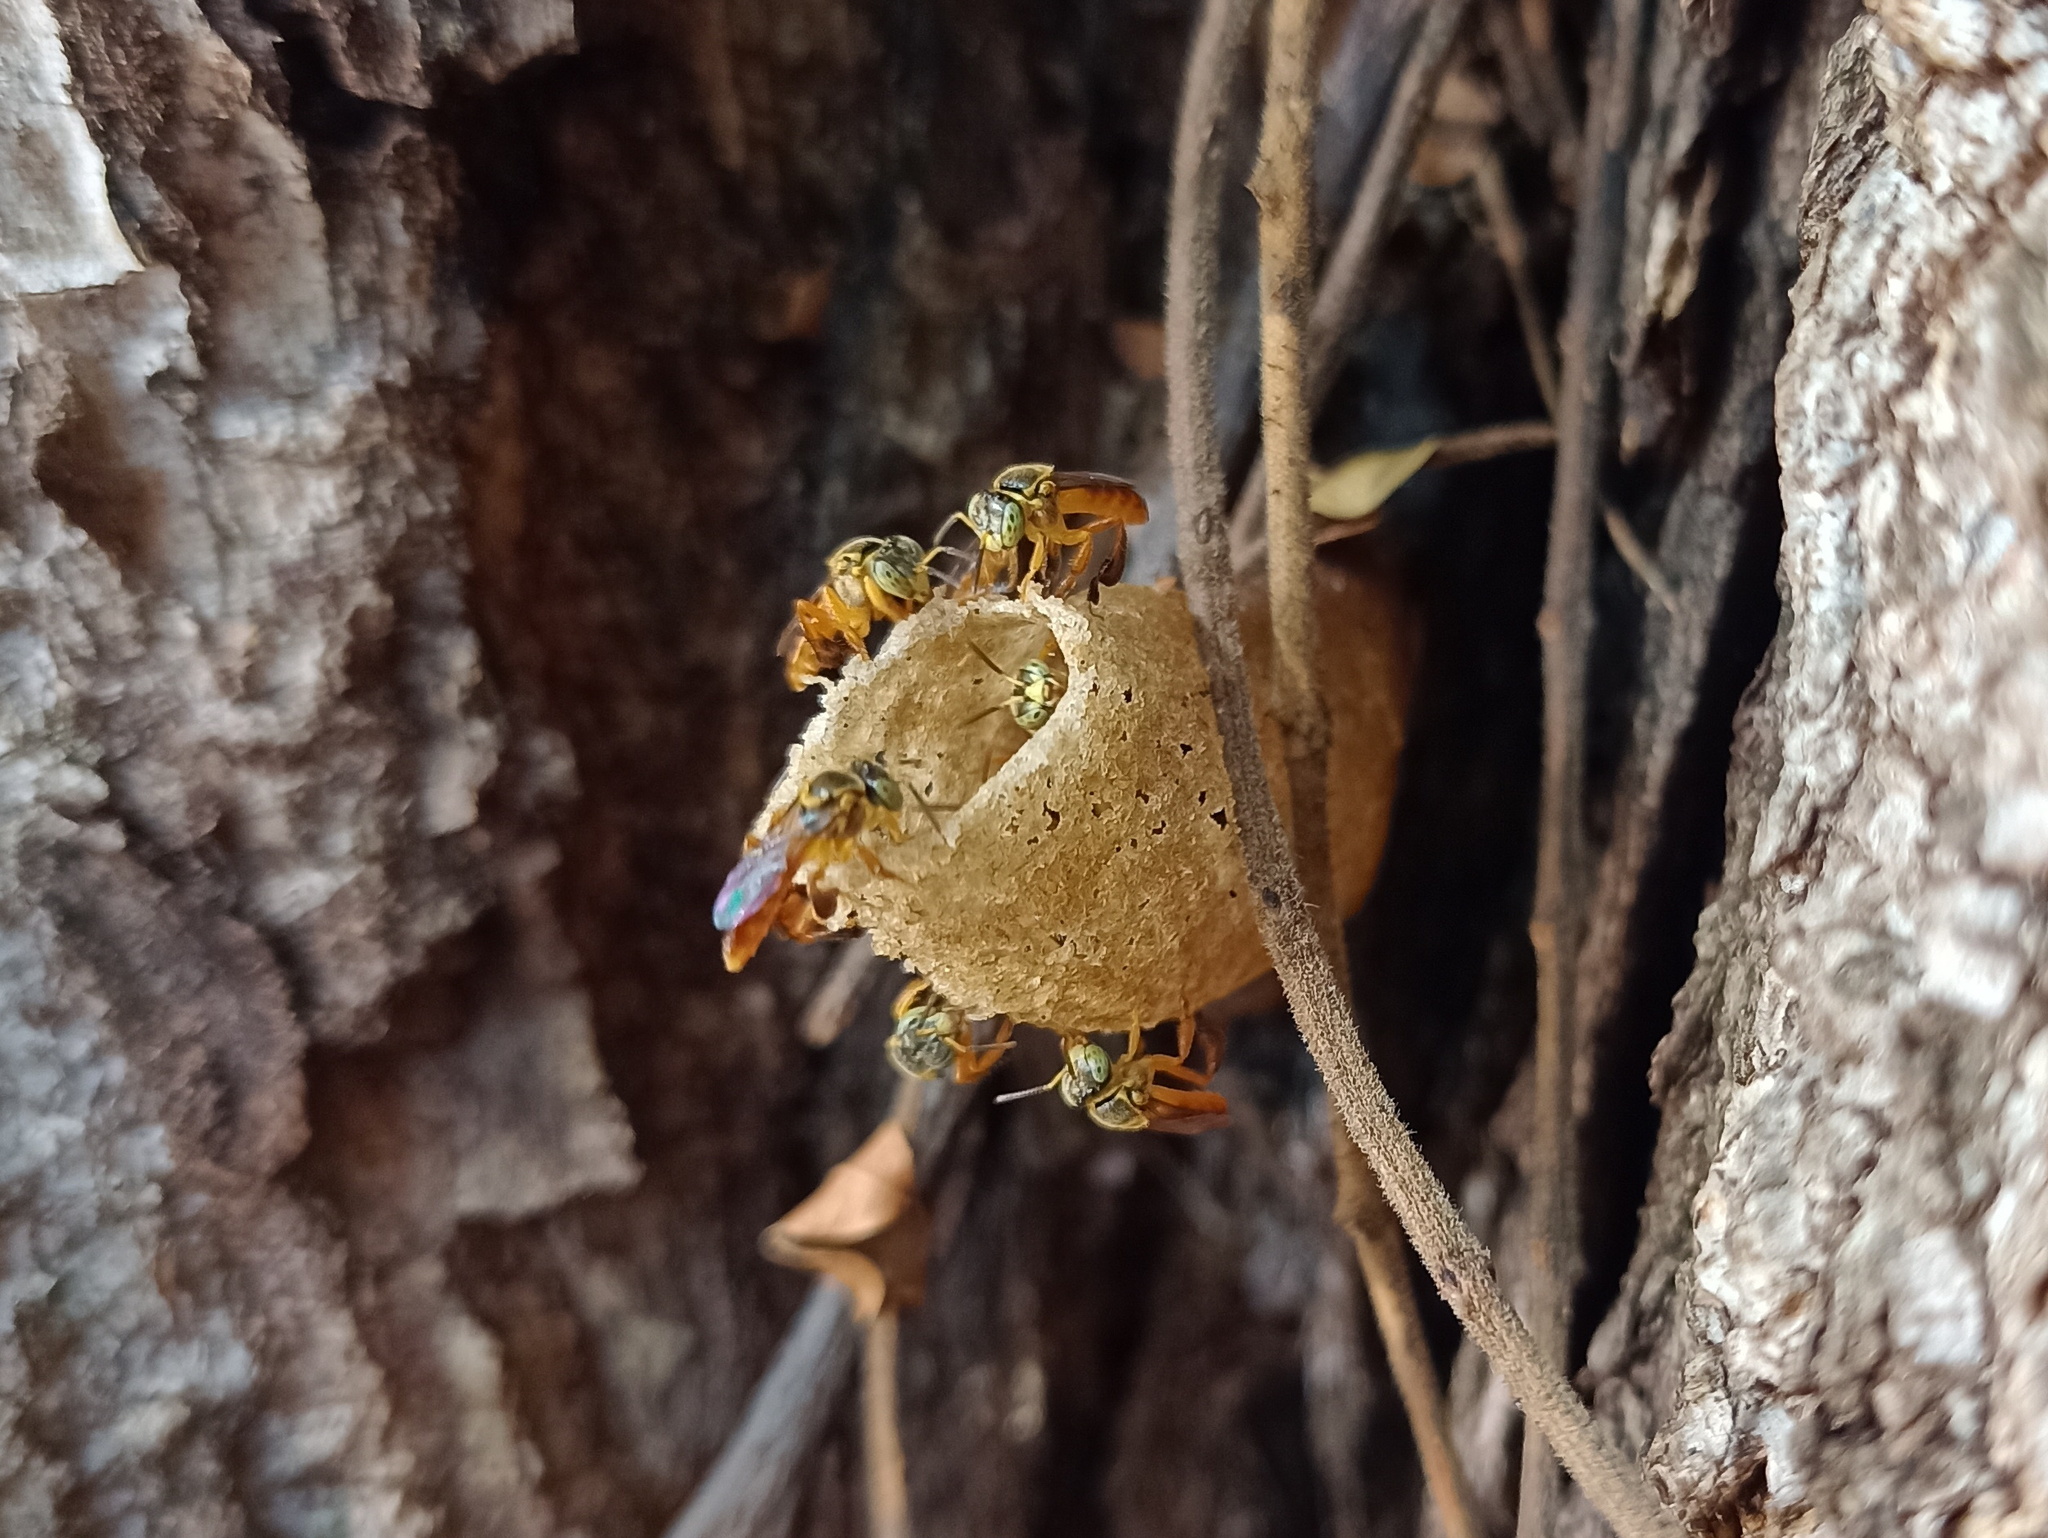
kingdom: Animalia
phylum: Arthropoda
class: Insecta
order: Hymenoptera
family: Apidae
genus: Tetragonisca
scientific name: Tetragonisca angustula
